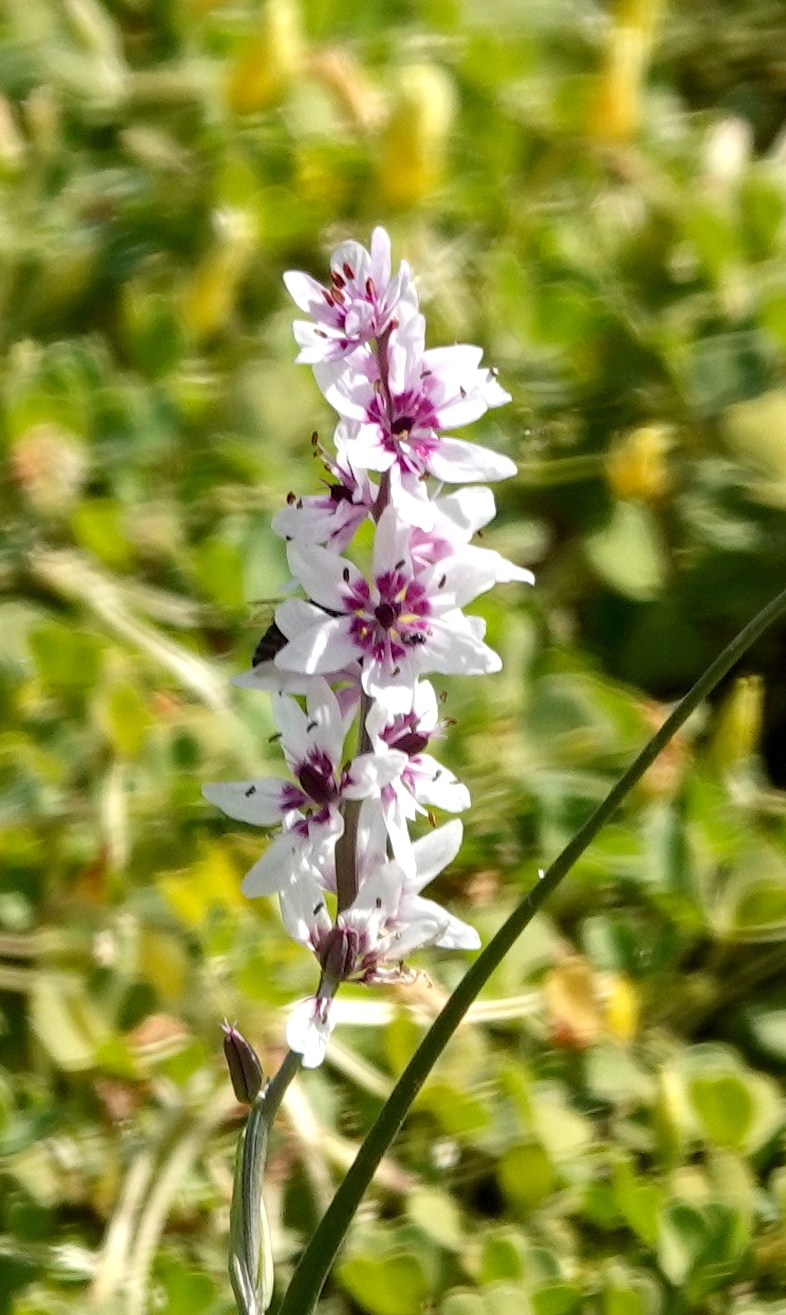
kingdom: Plantae
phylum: Tracheophyta
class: Liliopsida
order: Liliales
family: Colchicaceae
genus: Wurmbea
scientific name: Wurmbea stricta
